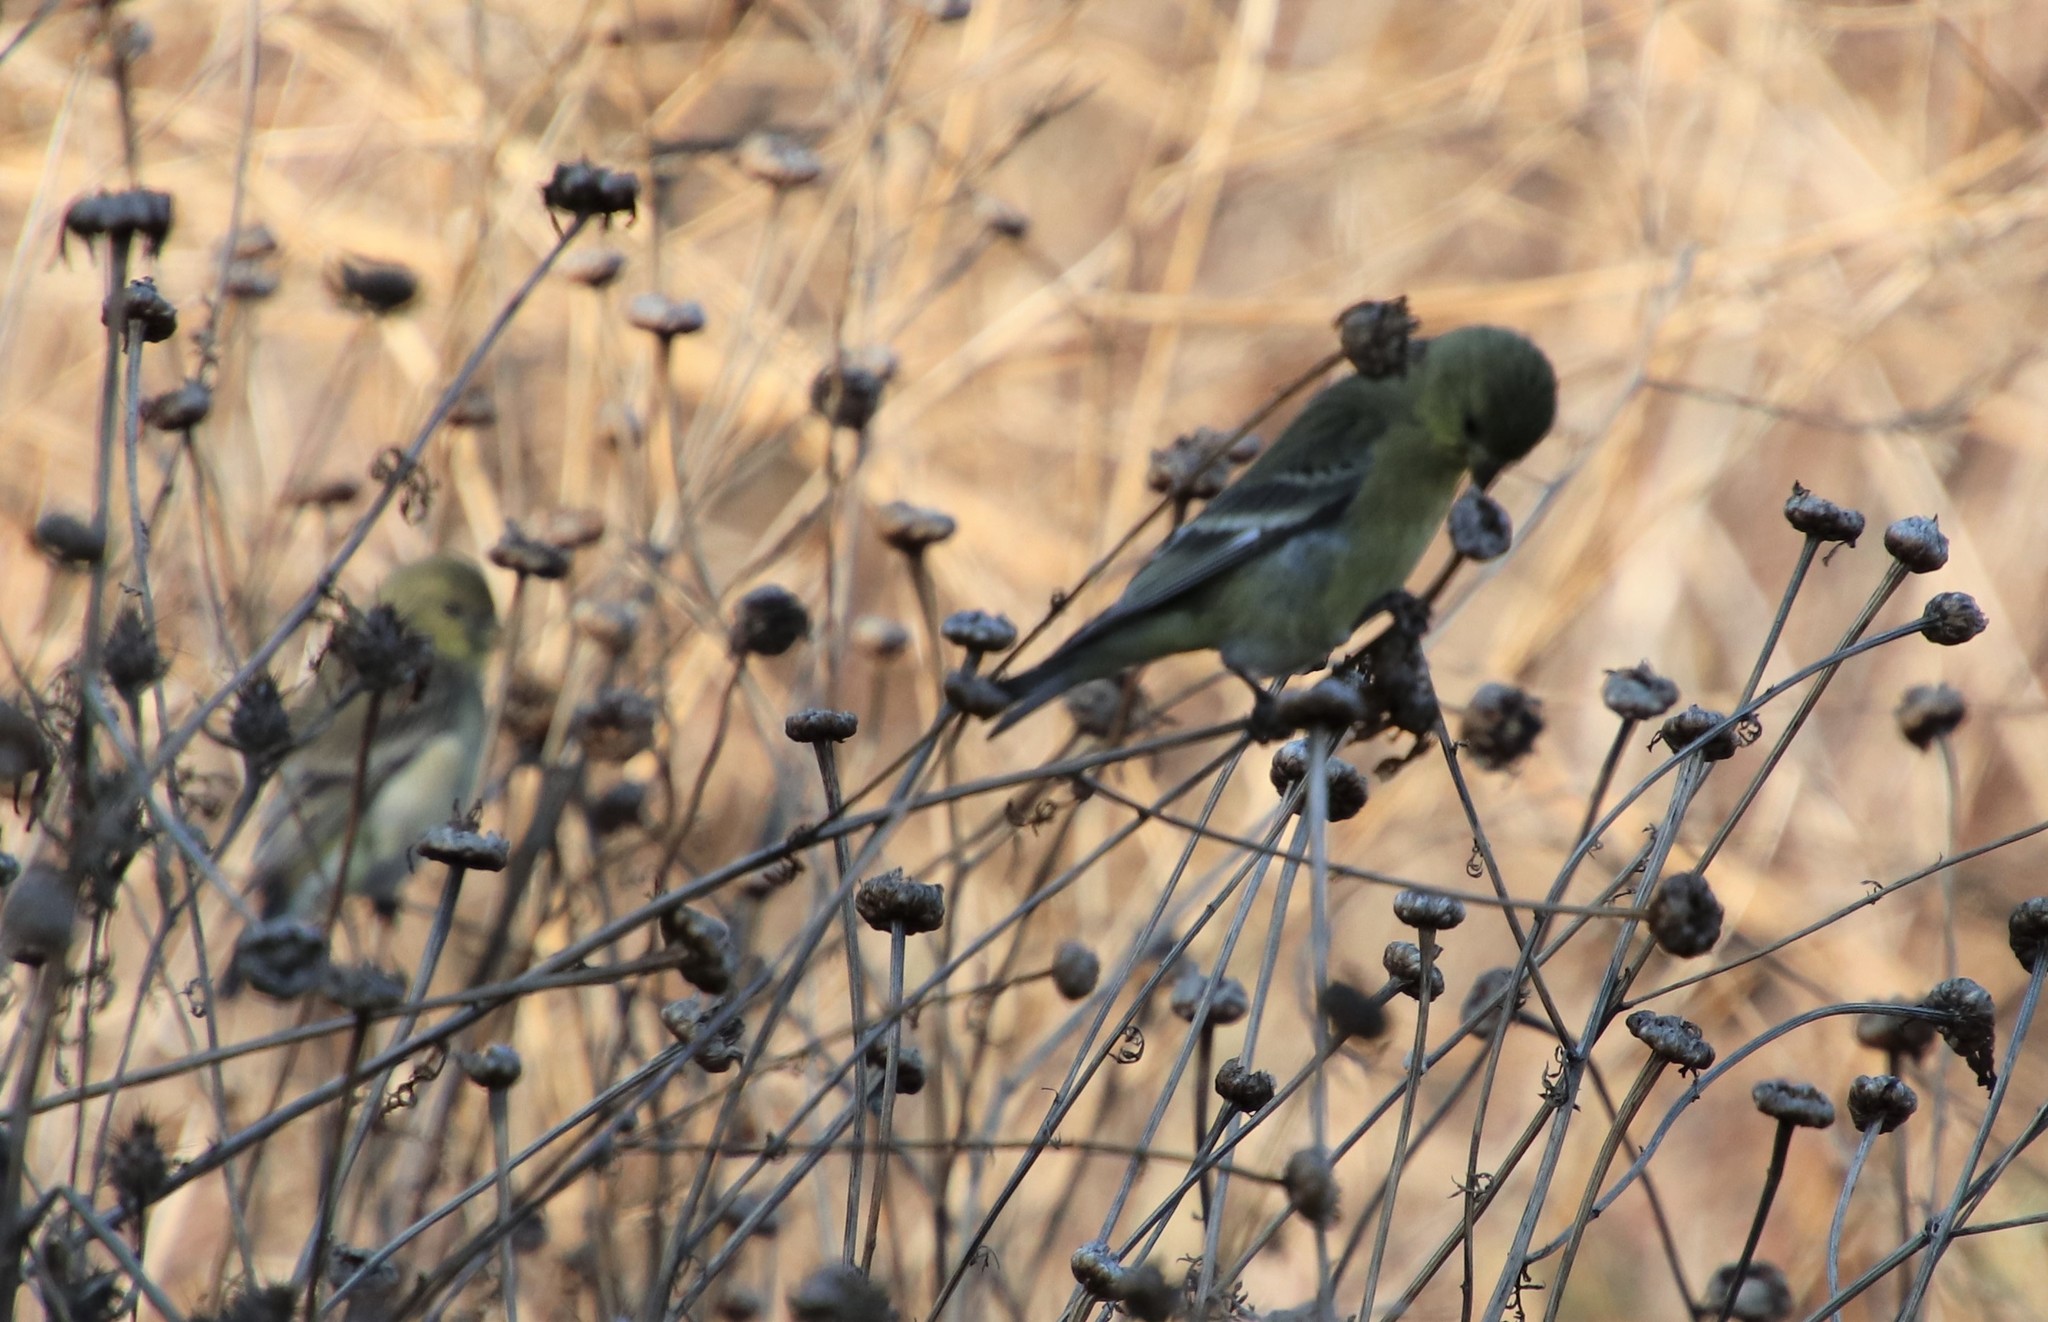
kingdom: Animalia
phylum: Chordata
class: Aves
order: Passeriformes
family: Fringillidae
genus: Spinus
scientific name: Spinus psaltria
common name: Lesser goldfinch
